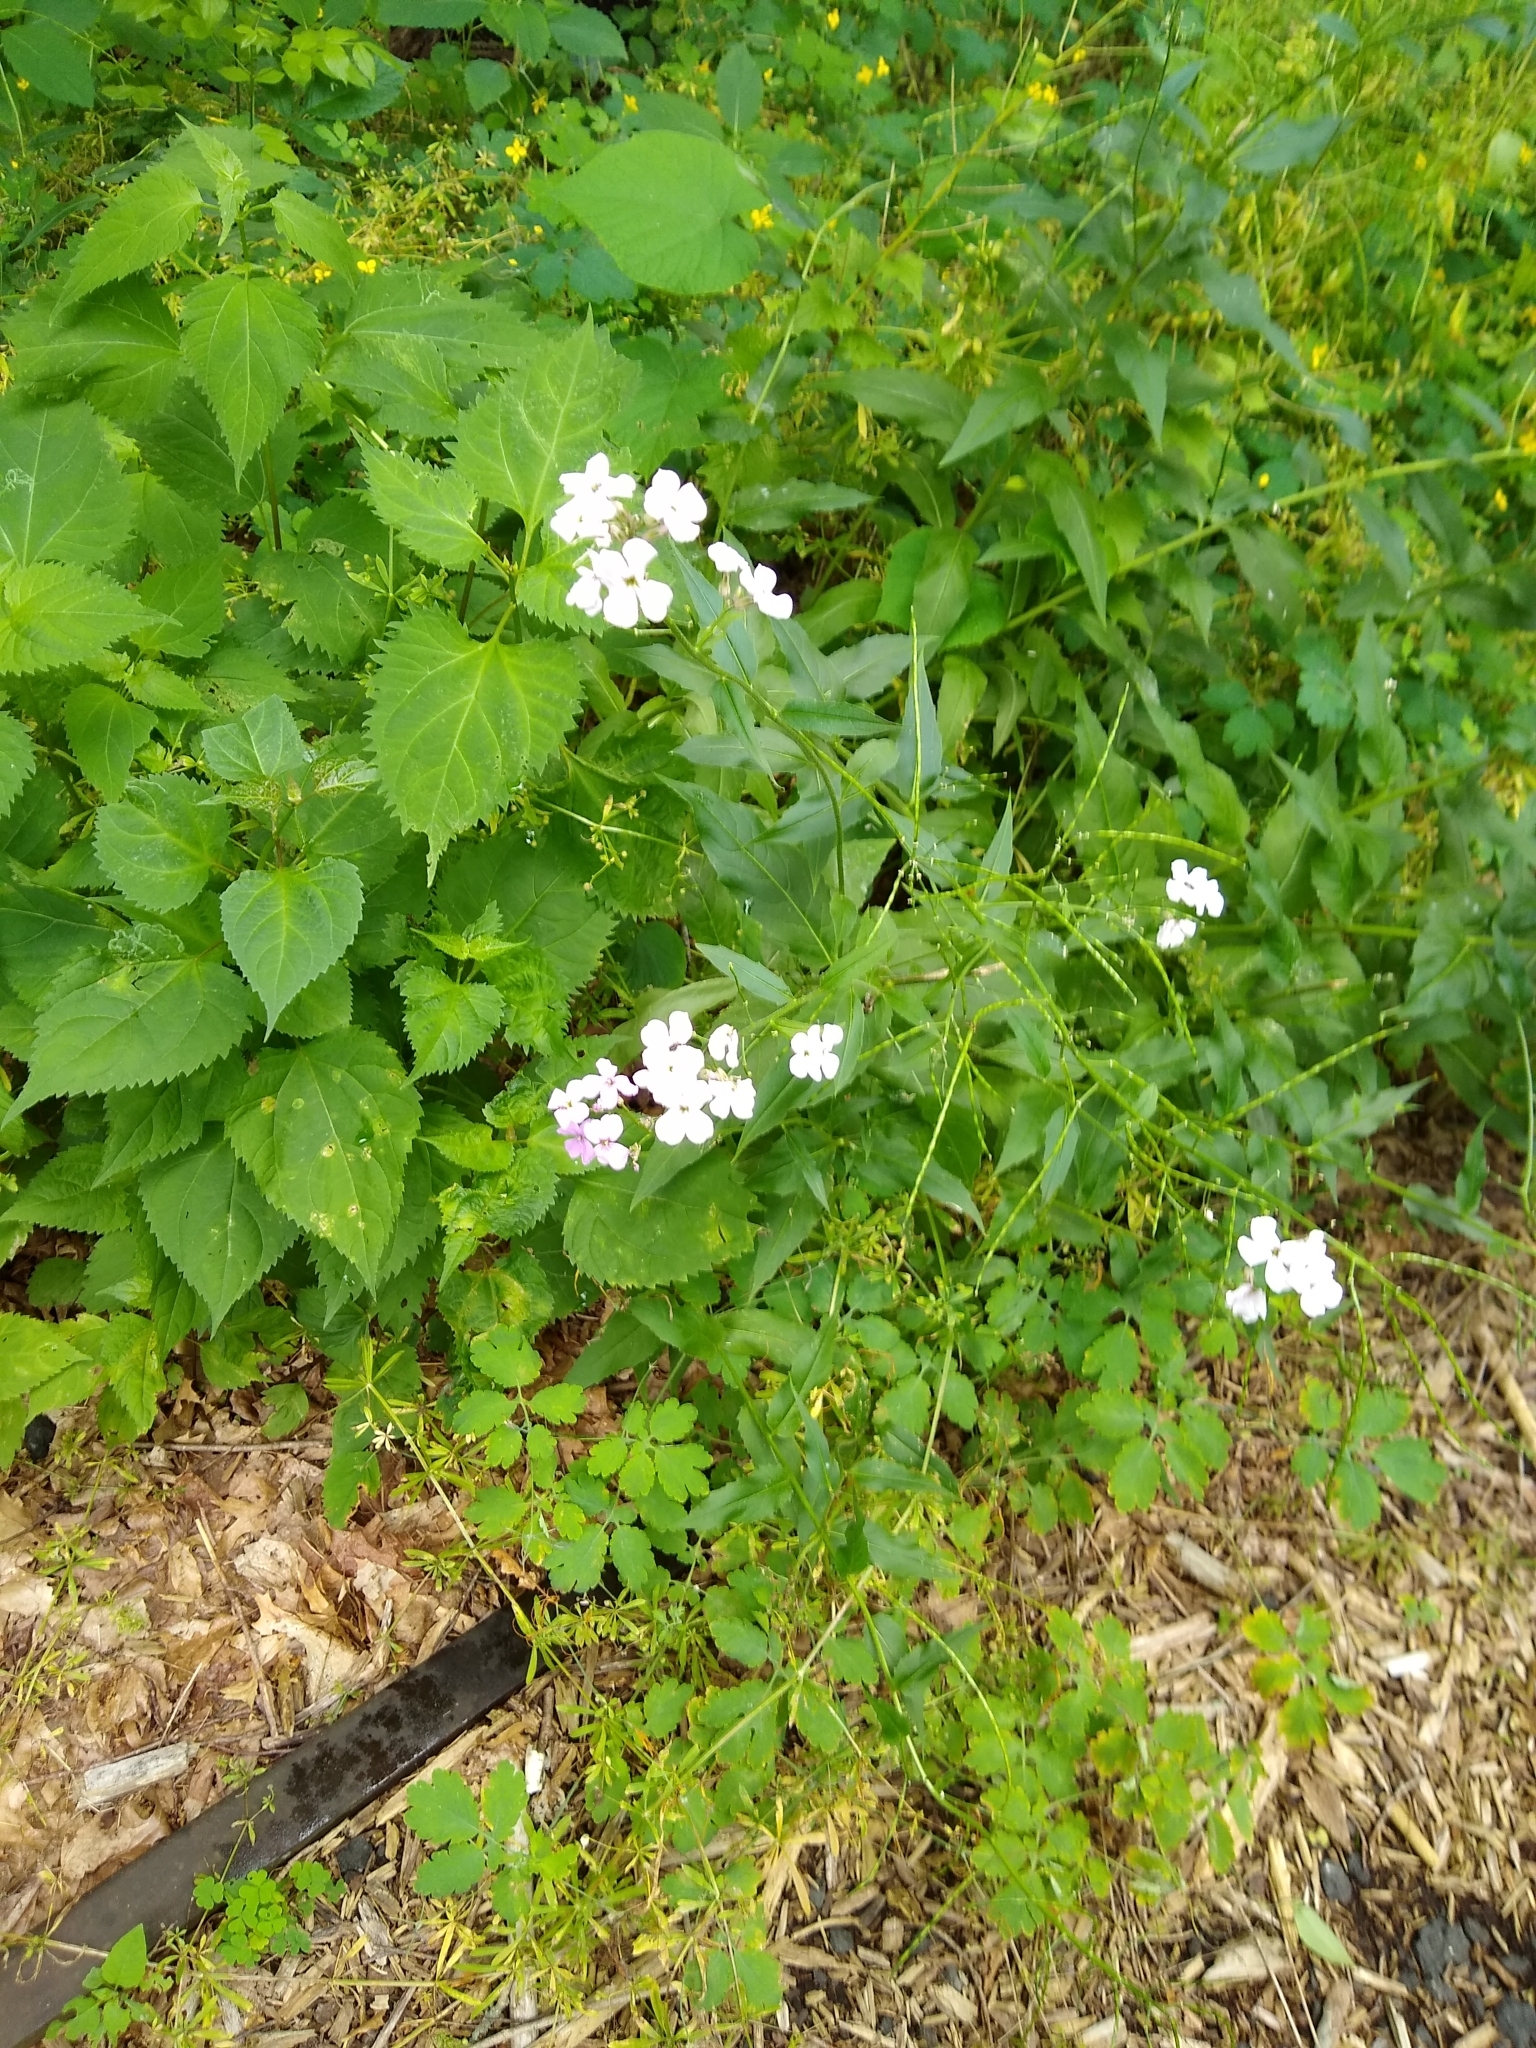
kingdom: Plantae
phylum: Tracheophyta
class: Magnoliopsida
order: Brassicales
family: Brassicaceae
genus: Hesperis
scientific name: Hesperis matronalis
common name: Dame's-violet
